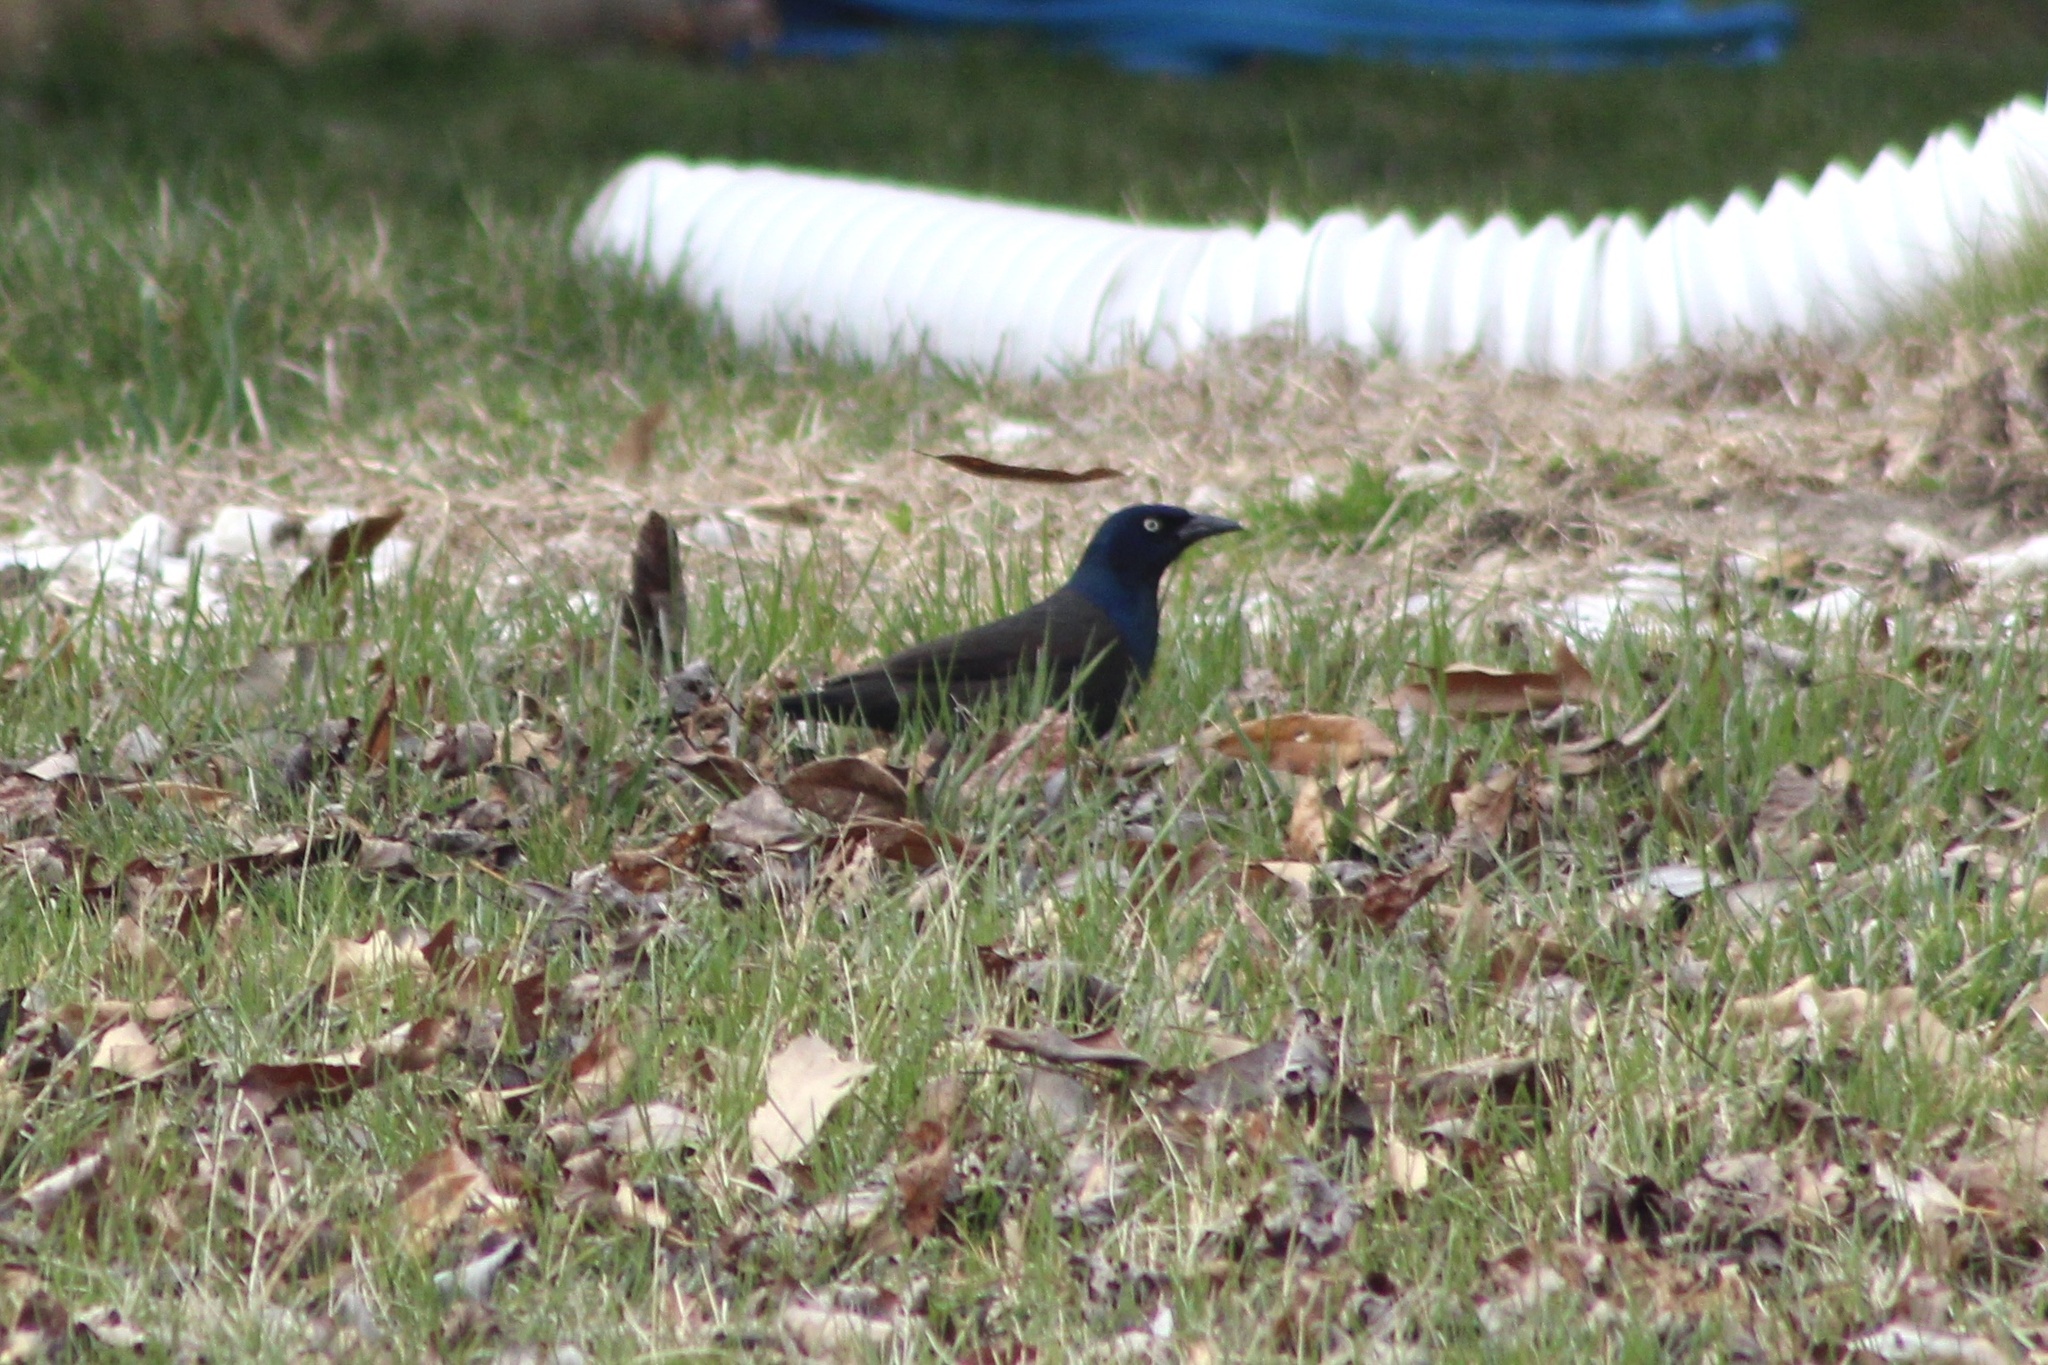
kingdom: Animalia
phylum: Chordata
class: Aves
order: Passeriformes
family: Icteridae
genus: Quiscalus
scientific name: Quiscalus quiscula
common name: Common grackle
